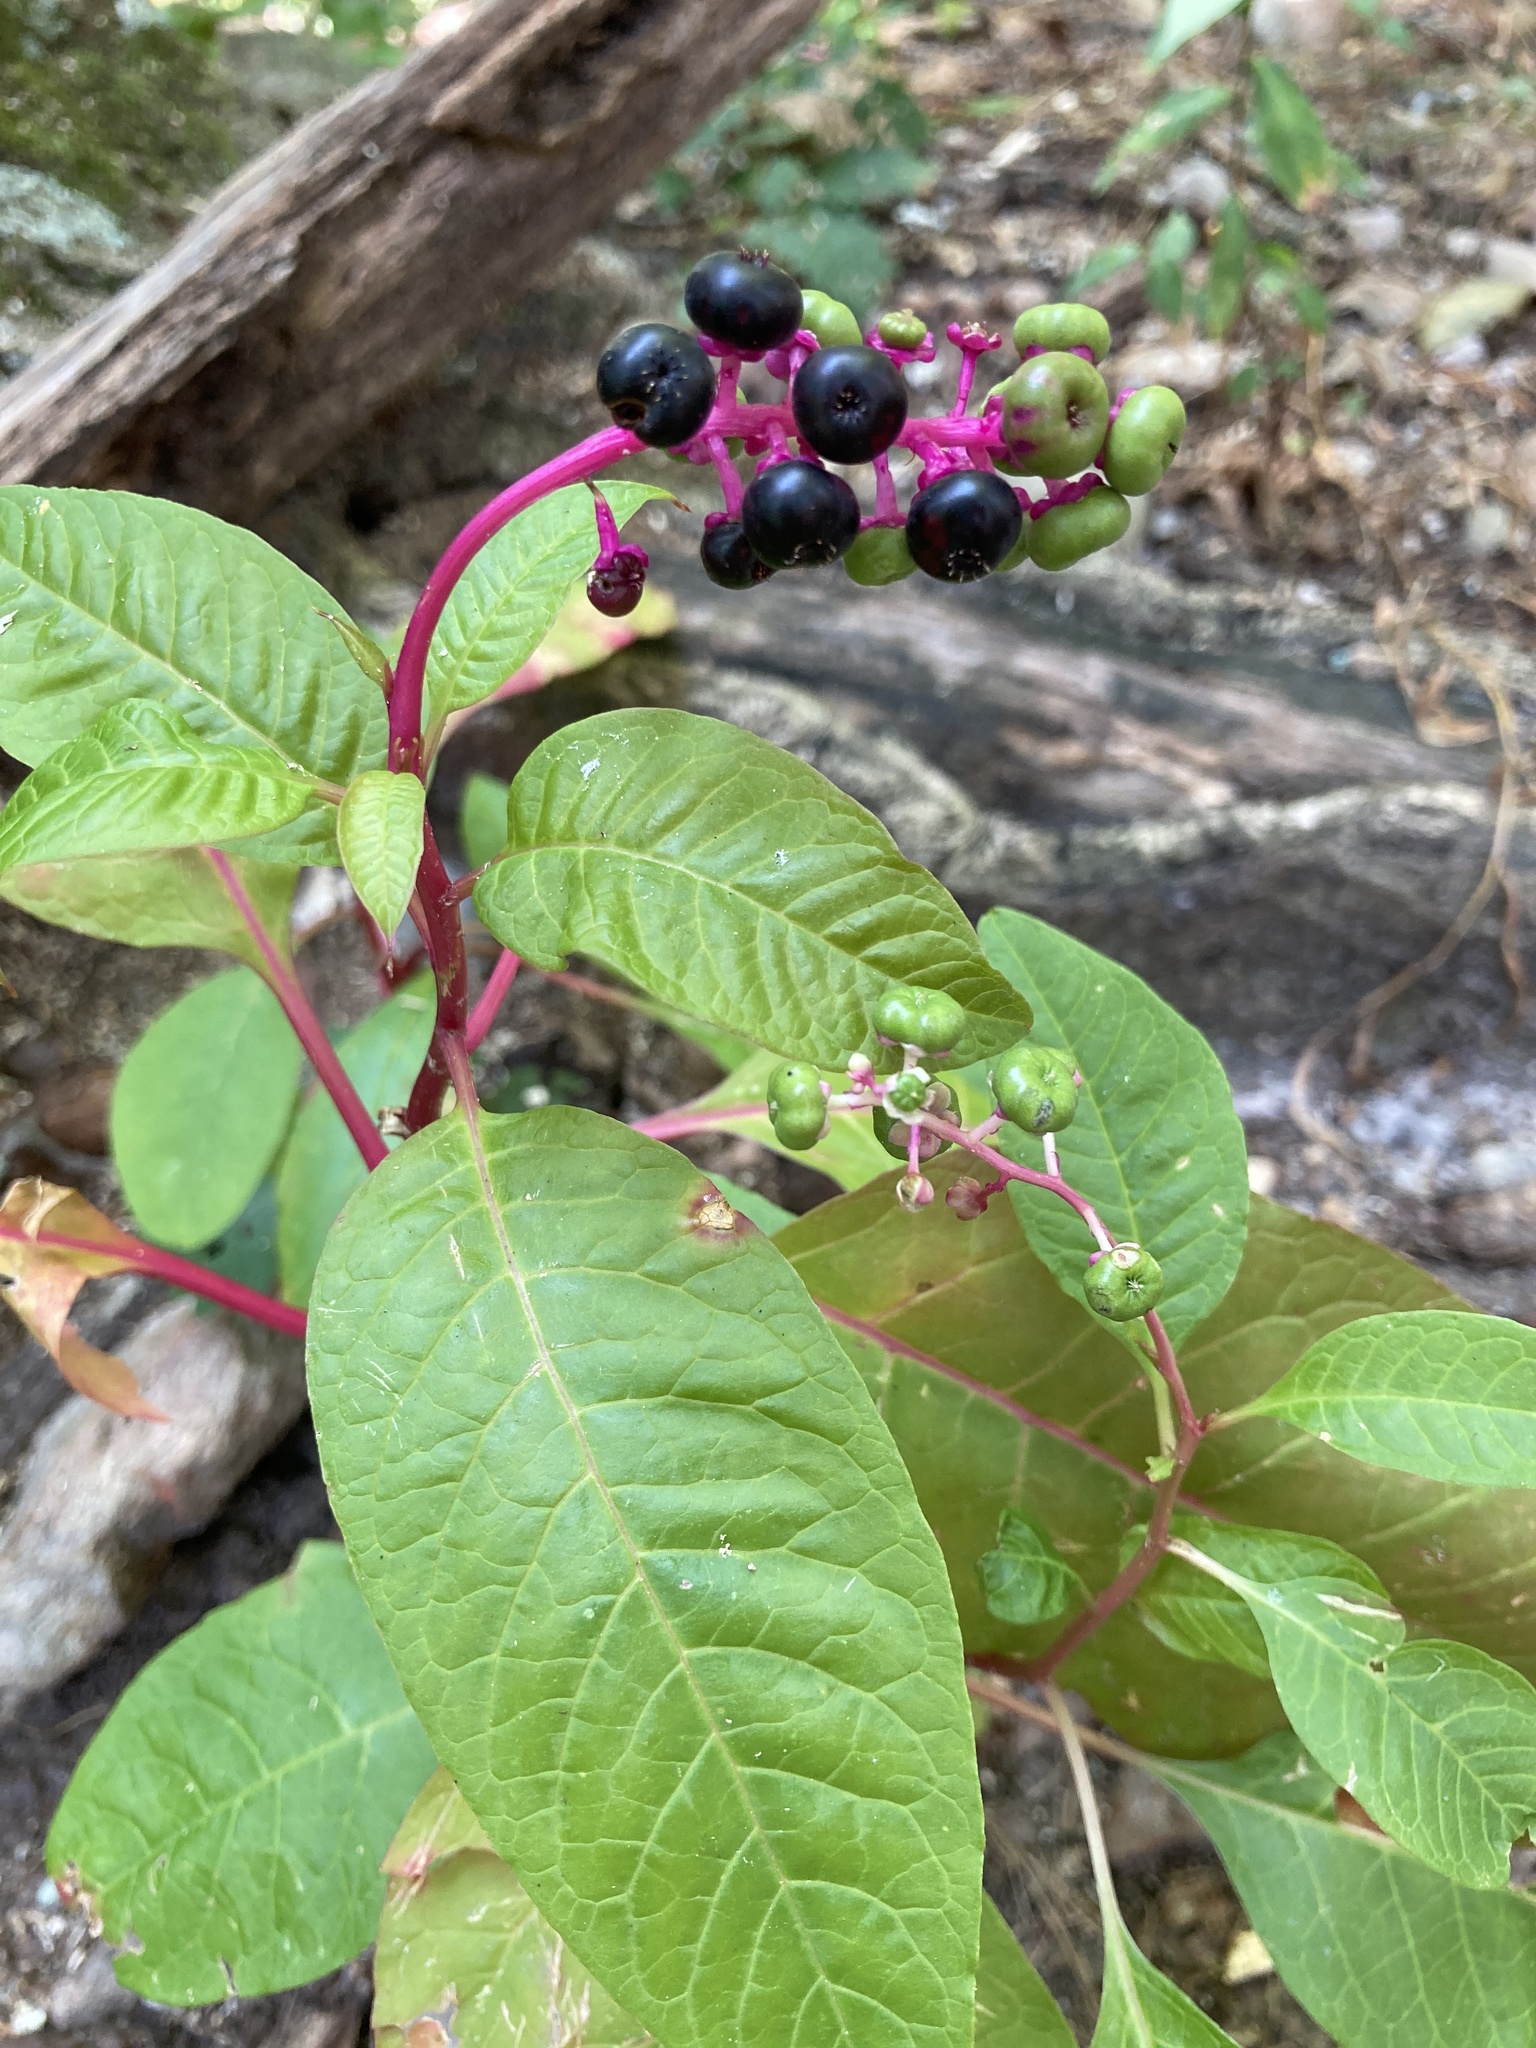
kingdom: Plantae
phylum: Tracheophyta
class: Magnoliopsida
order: Caryophyllales
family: Phytolaccaceae
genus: Phytolacca
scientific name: Phytolacca americana
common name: American pokeweed
